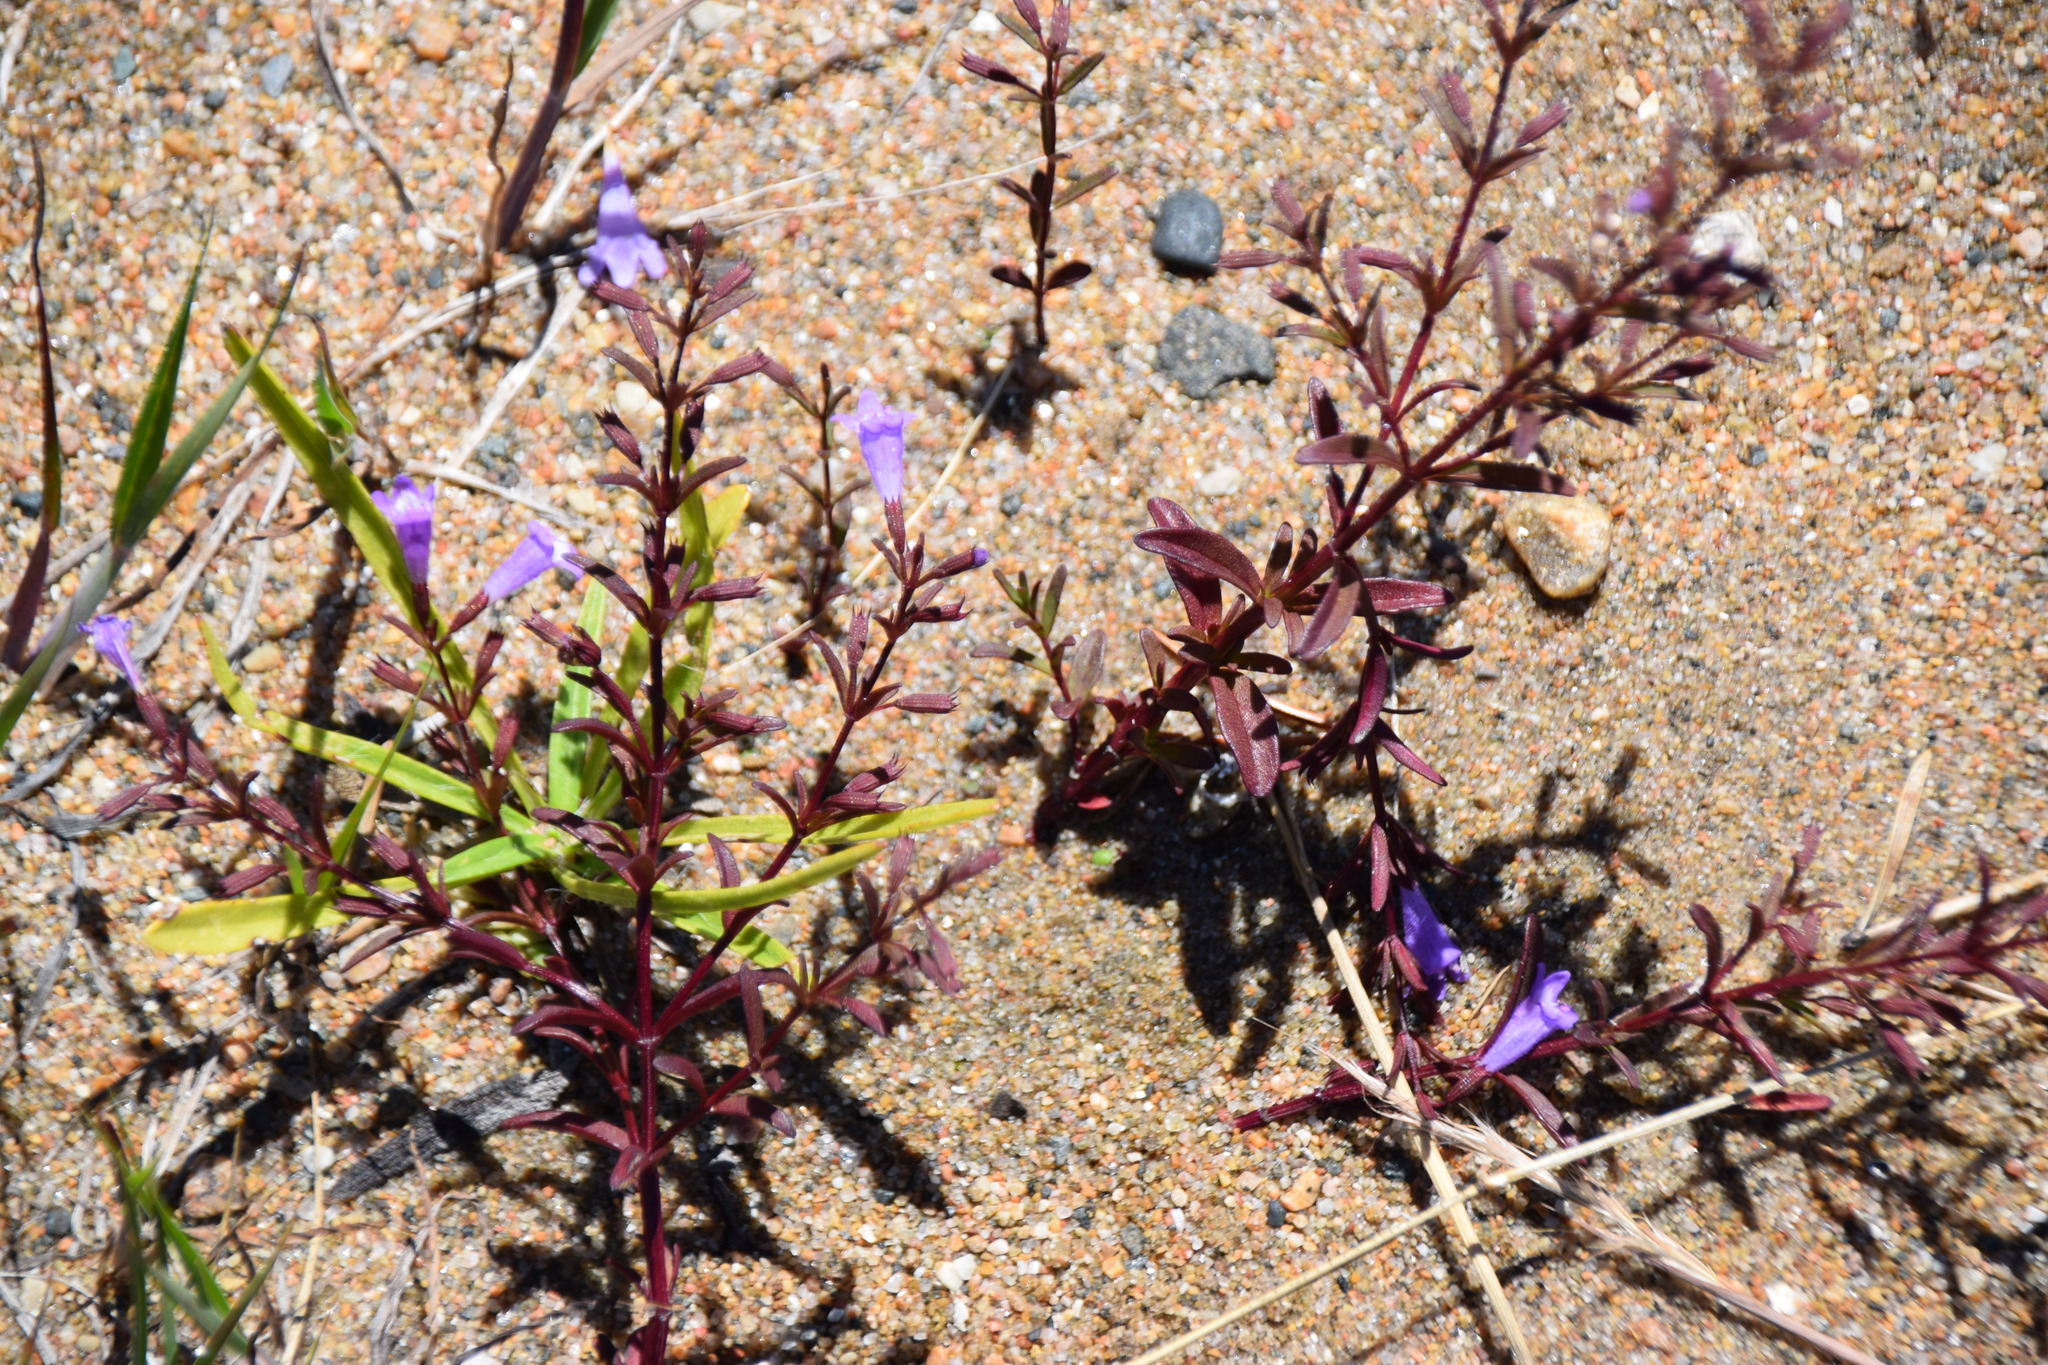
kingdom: Plantae
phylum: Tracheophyta
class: Magnoliopsida
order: Lamiales
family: Lamiaceae
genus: Clinopodium
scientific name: Clinopodium arkansanum
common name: Limestone calamint
